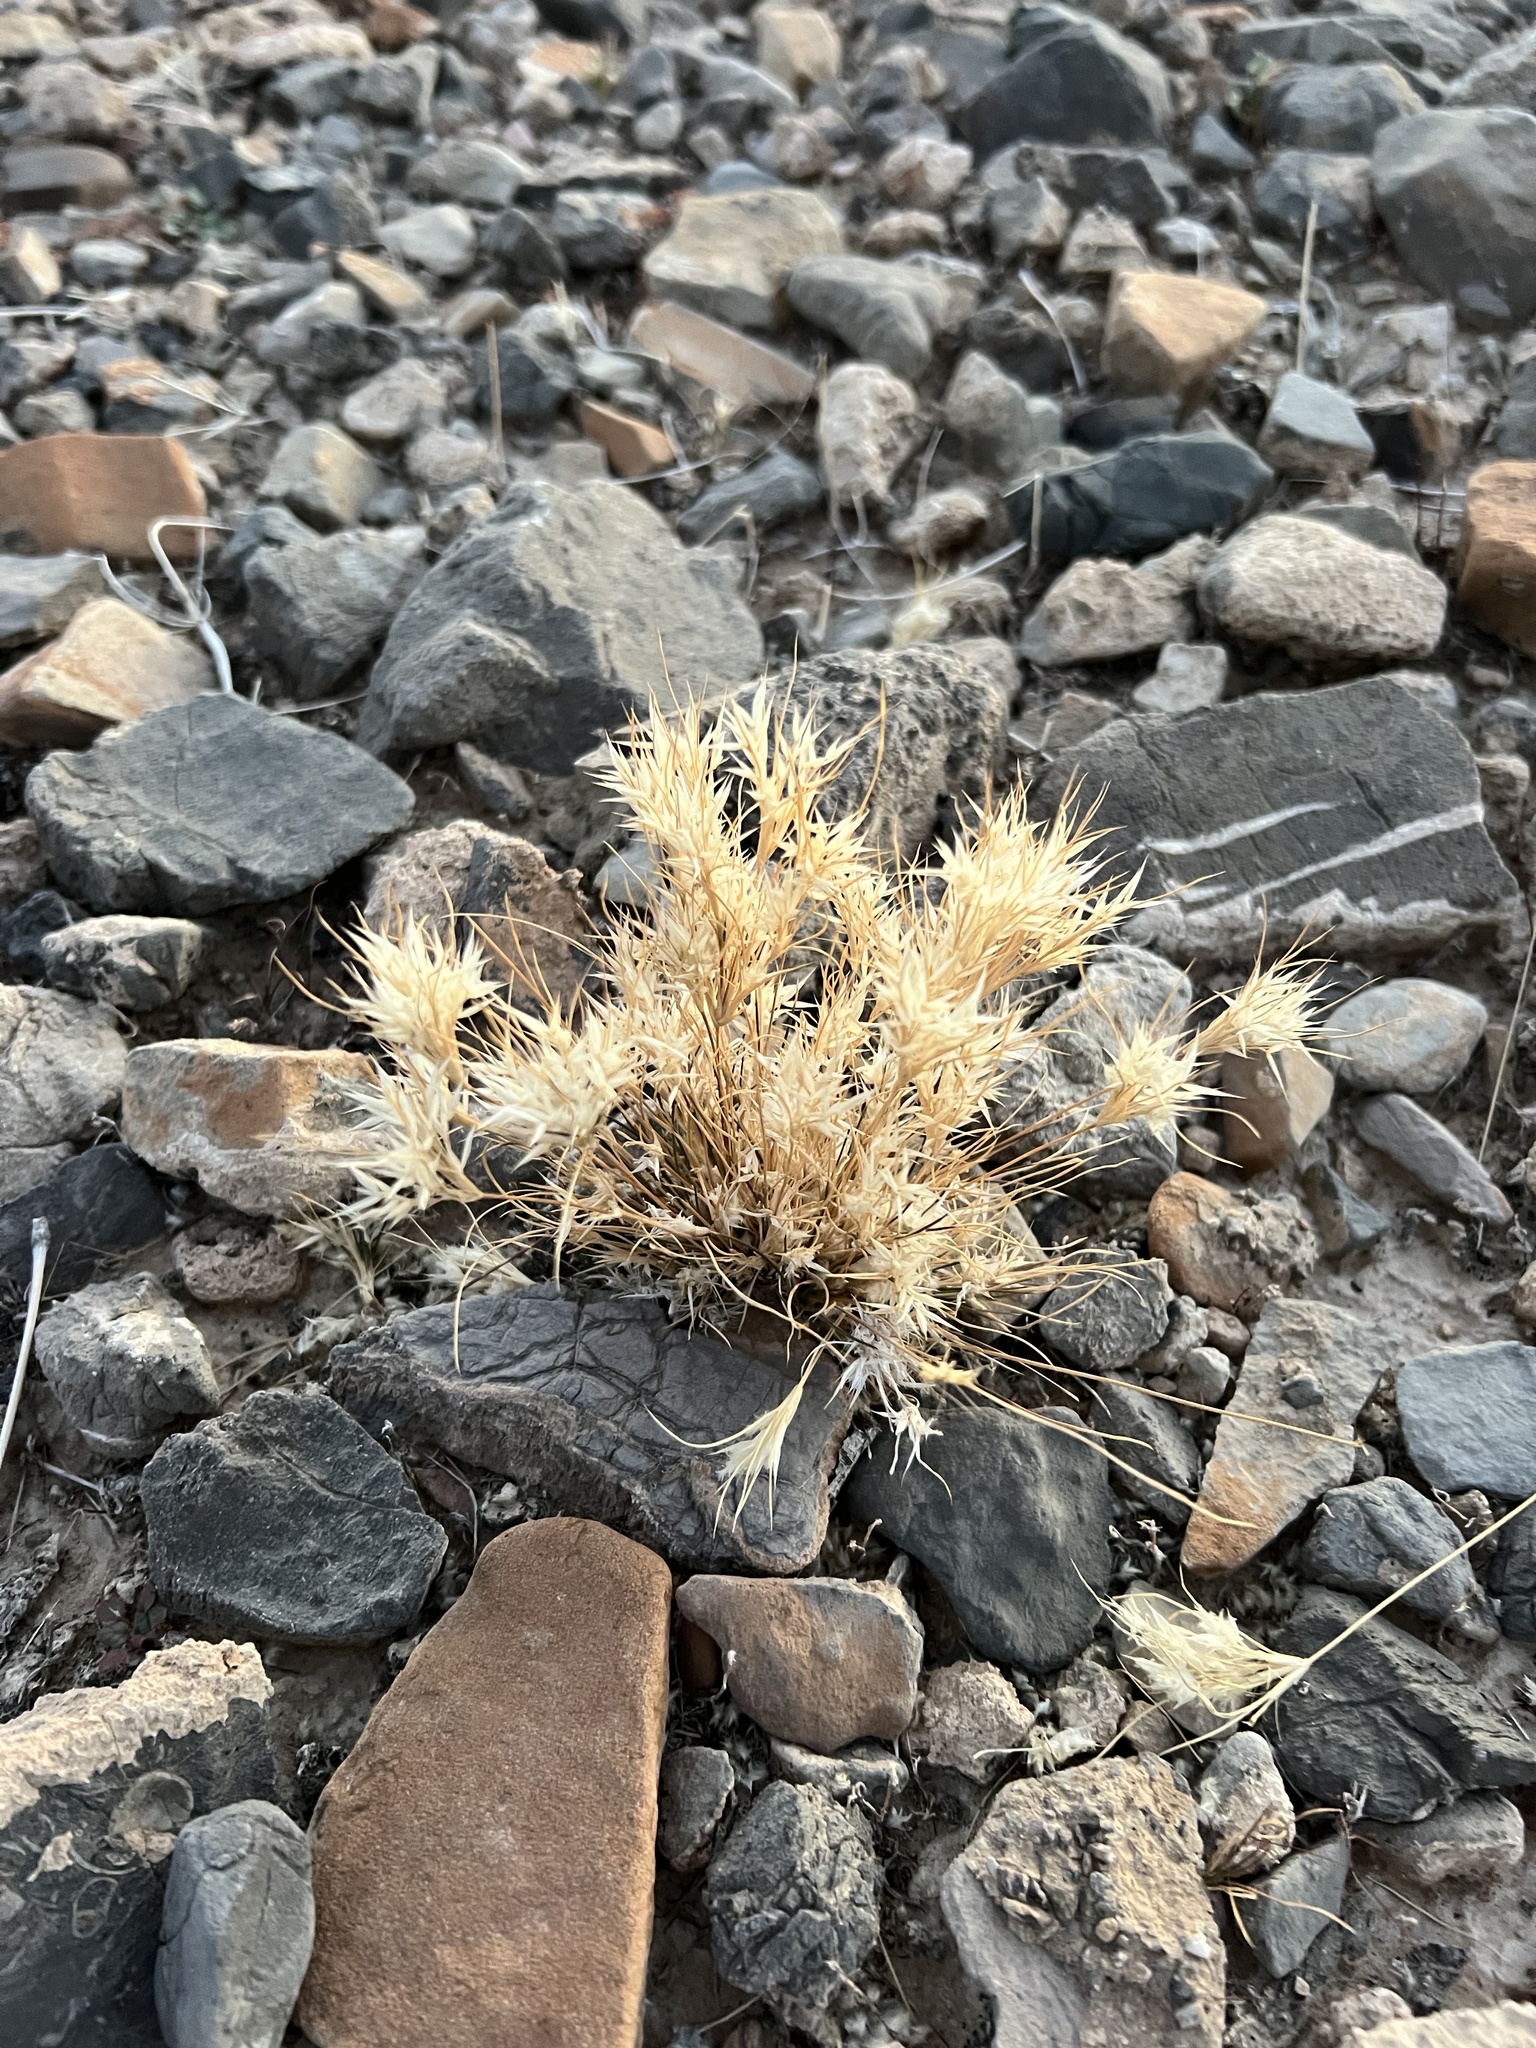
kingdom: Plantae
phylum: Tracheophyta
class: Liliopsida
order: Poales
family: Poaceae
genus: Dasyochloa
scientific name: Dasyochloa pulchella
